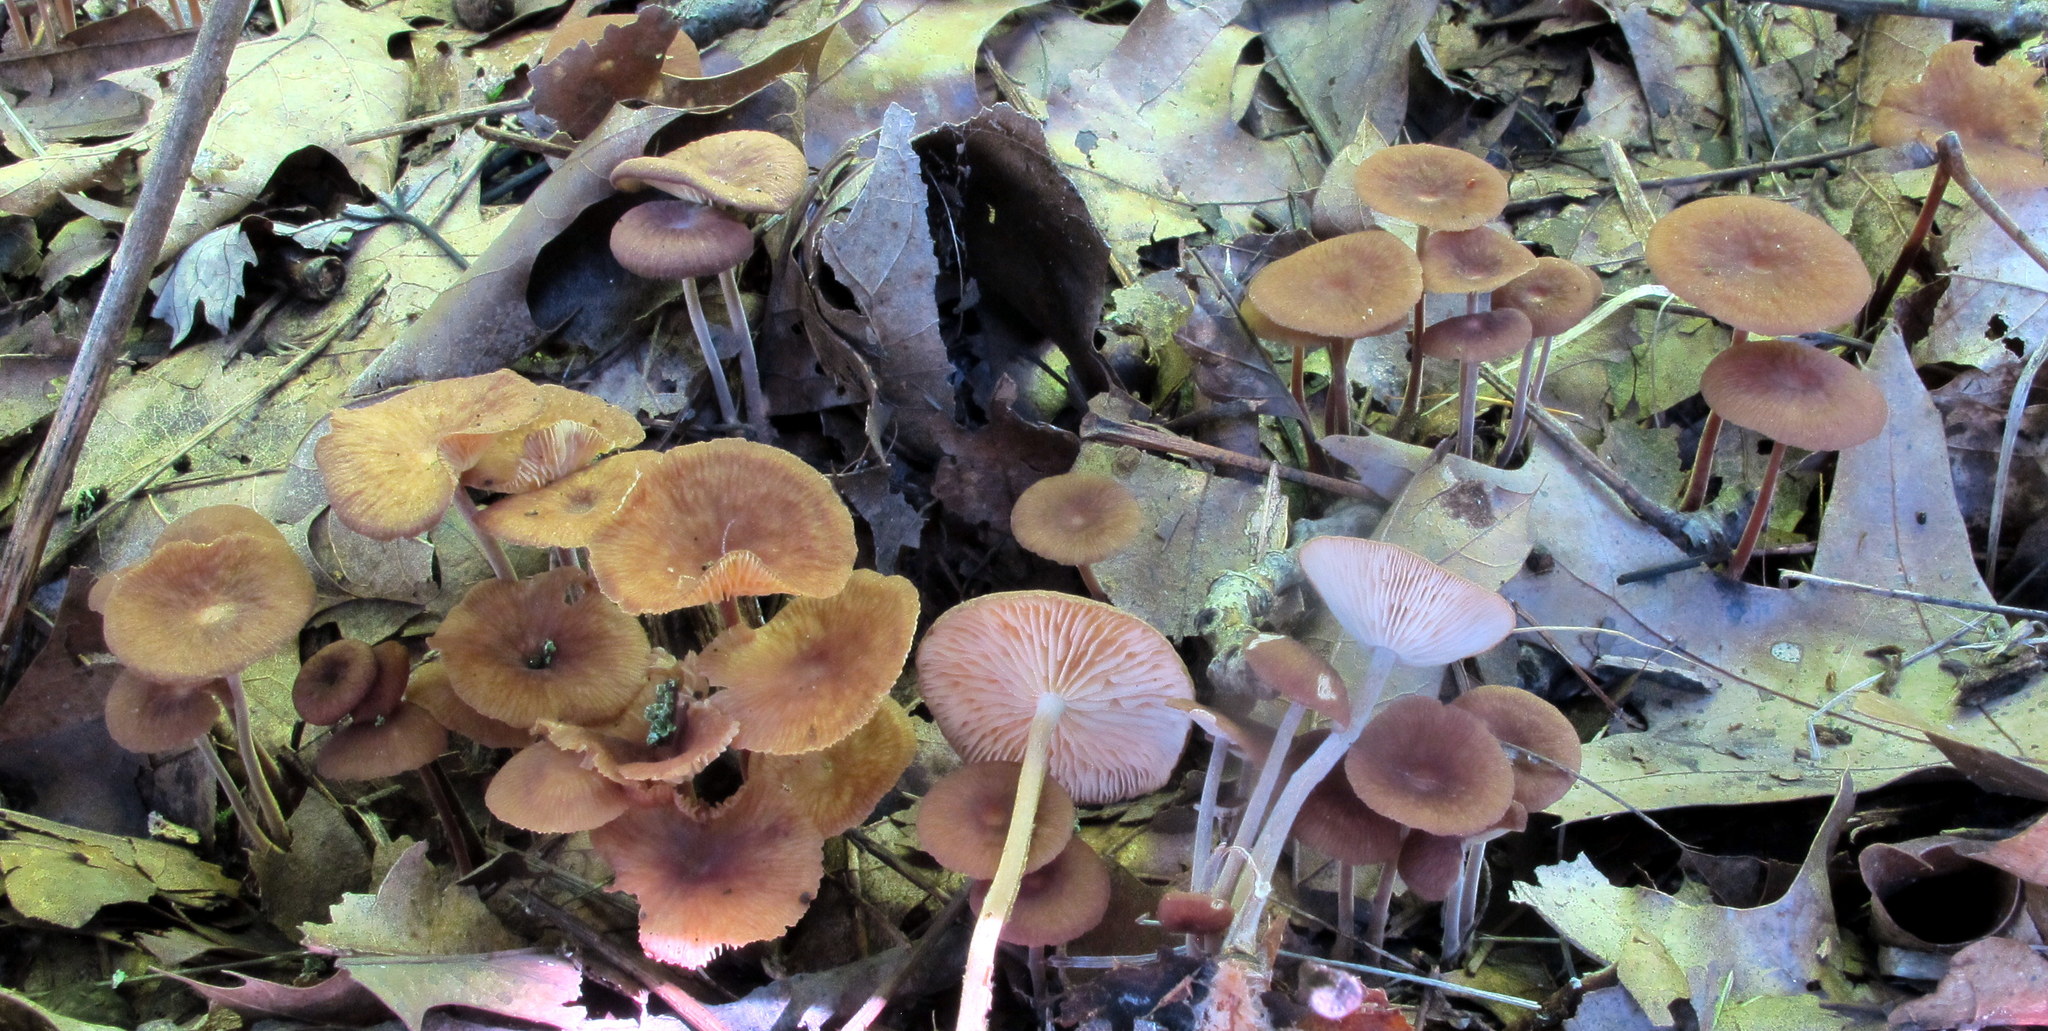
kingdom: Fungi
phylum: Basidiomycota
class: Agaricomycetes
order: Agaricales
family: Omphalotaceae
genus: Collybiopsis
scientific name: Collybiopsis subnuda
